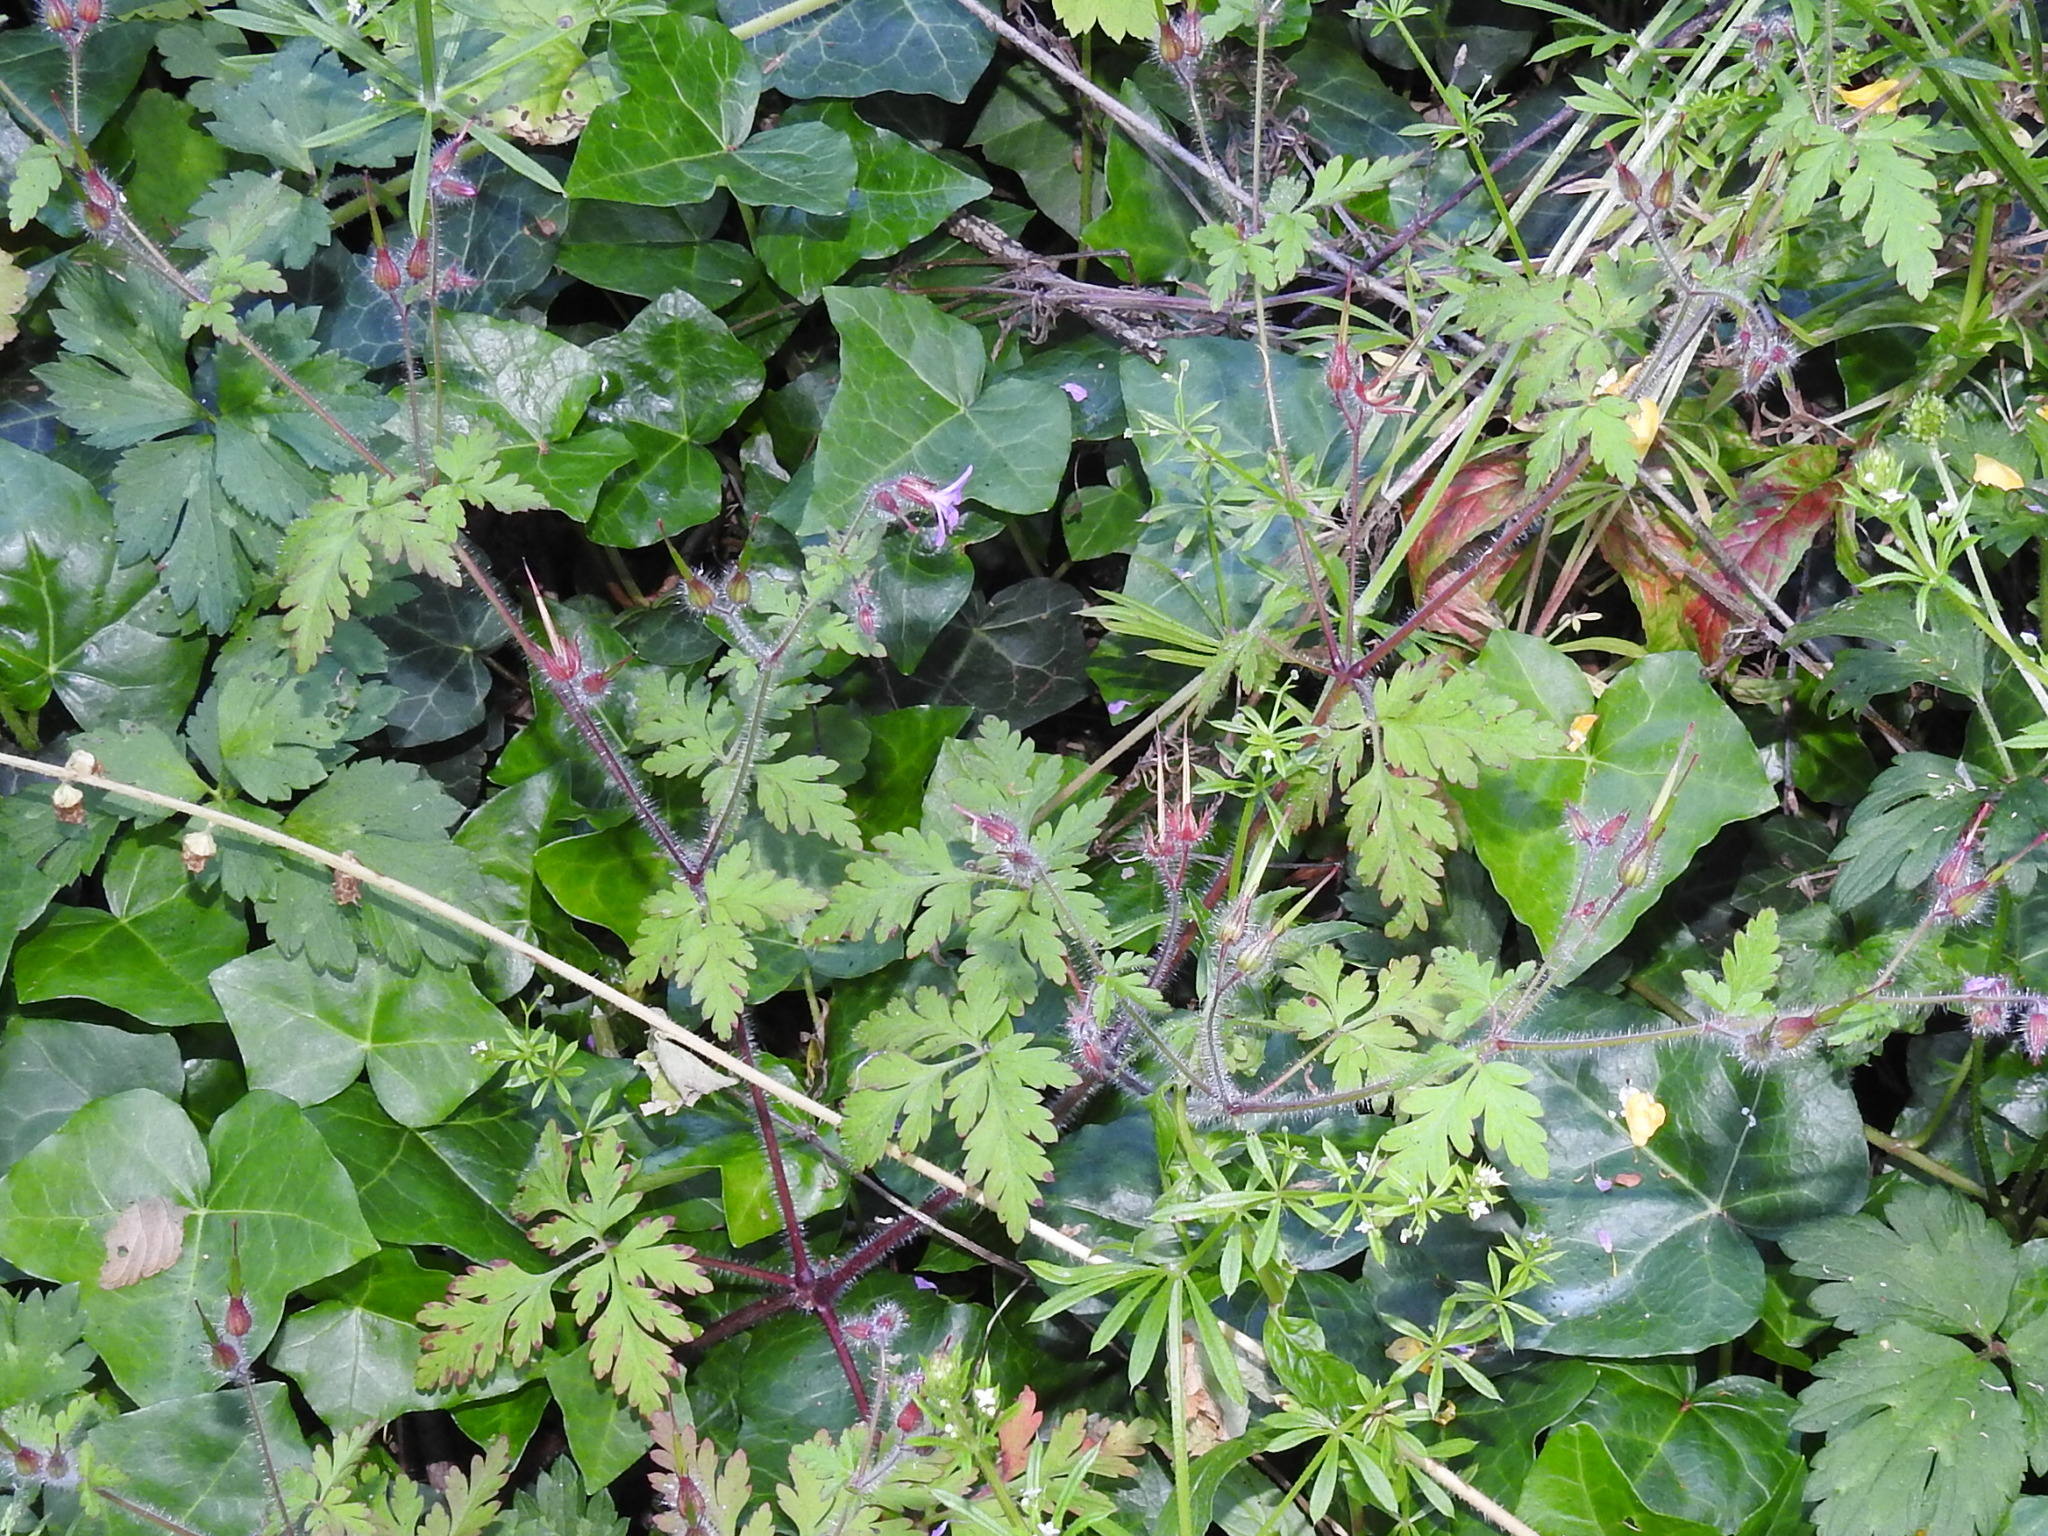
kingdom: Plantae
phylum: Tracheophyta
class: Magnoliopsida
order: Geraniales
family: Geraniaceae
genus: Geranium
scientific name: Geranium robertianum
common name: Herb-robert
